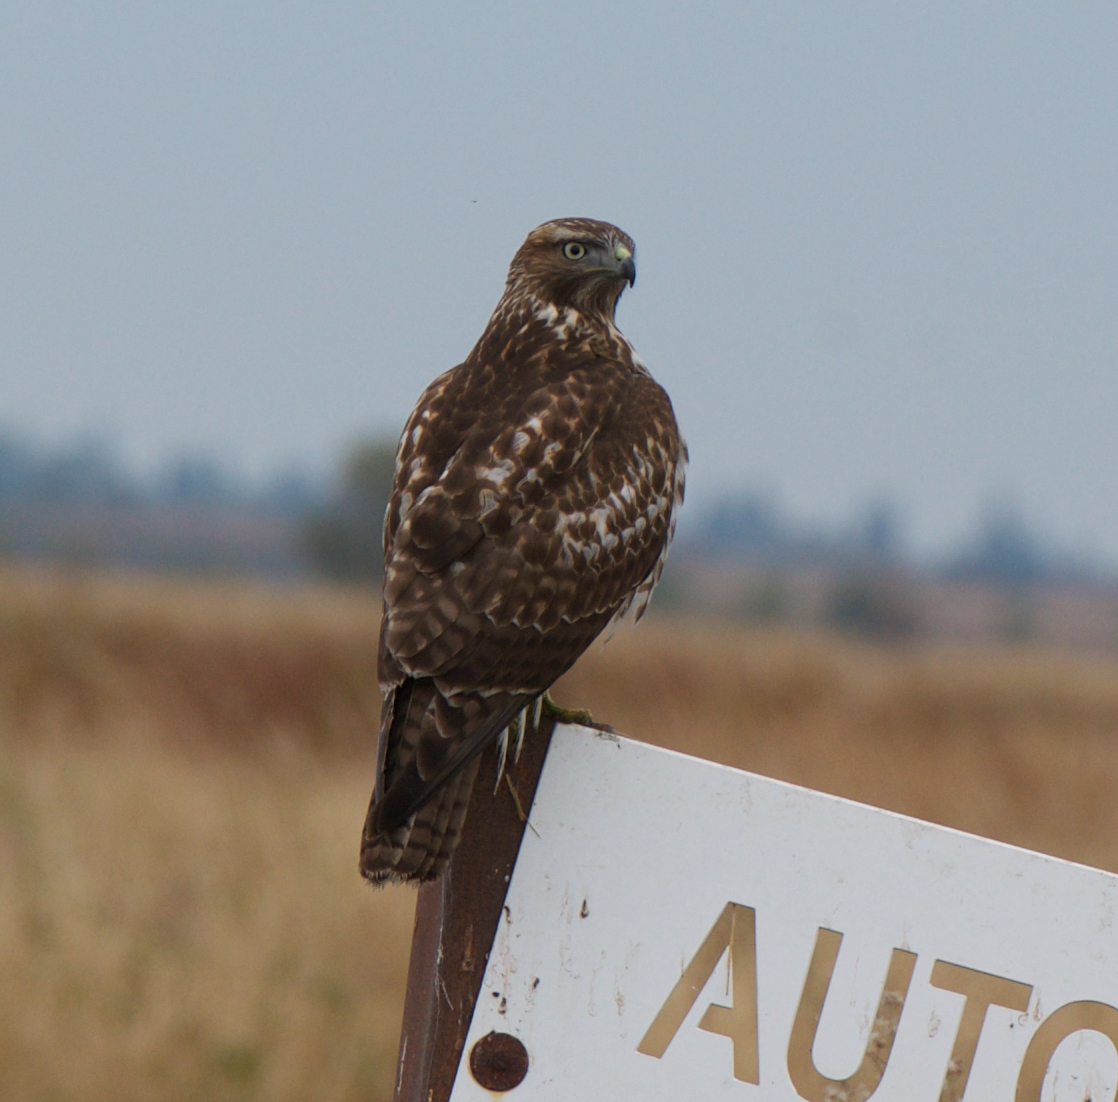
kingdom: Animalia
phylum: Chordata
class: Aves
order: Accipitriformes
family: Accipitridae
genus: Buteo
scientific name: Buteo jamaicensis
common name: Red-tailed hawk
